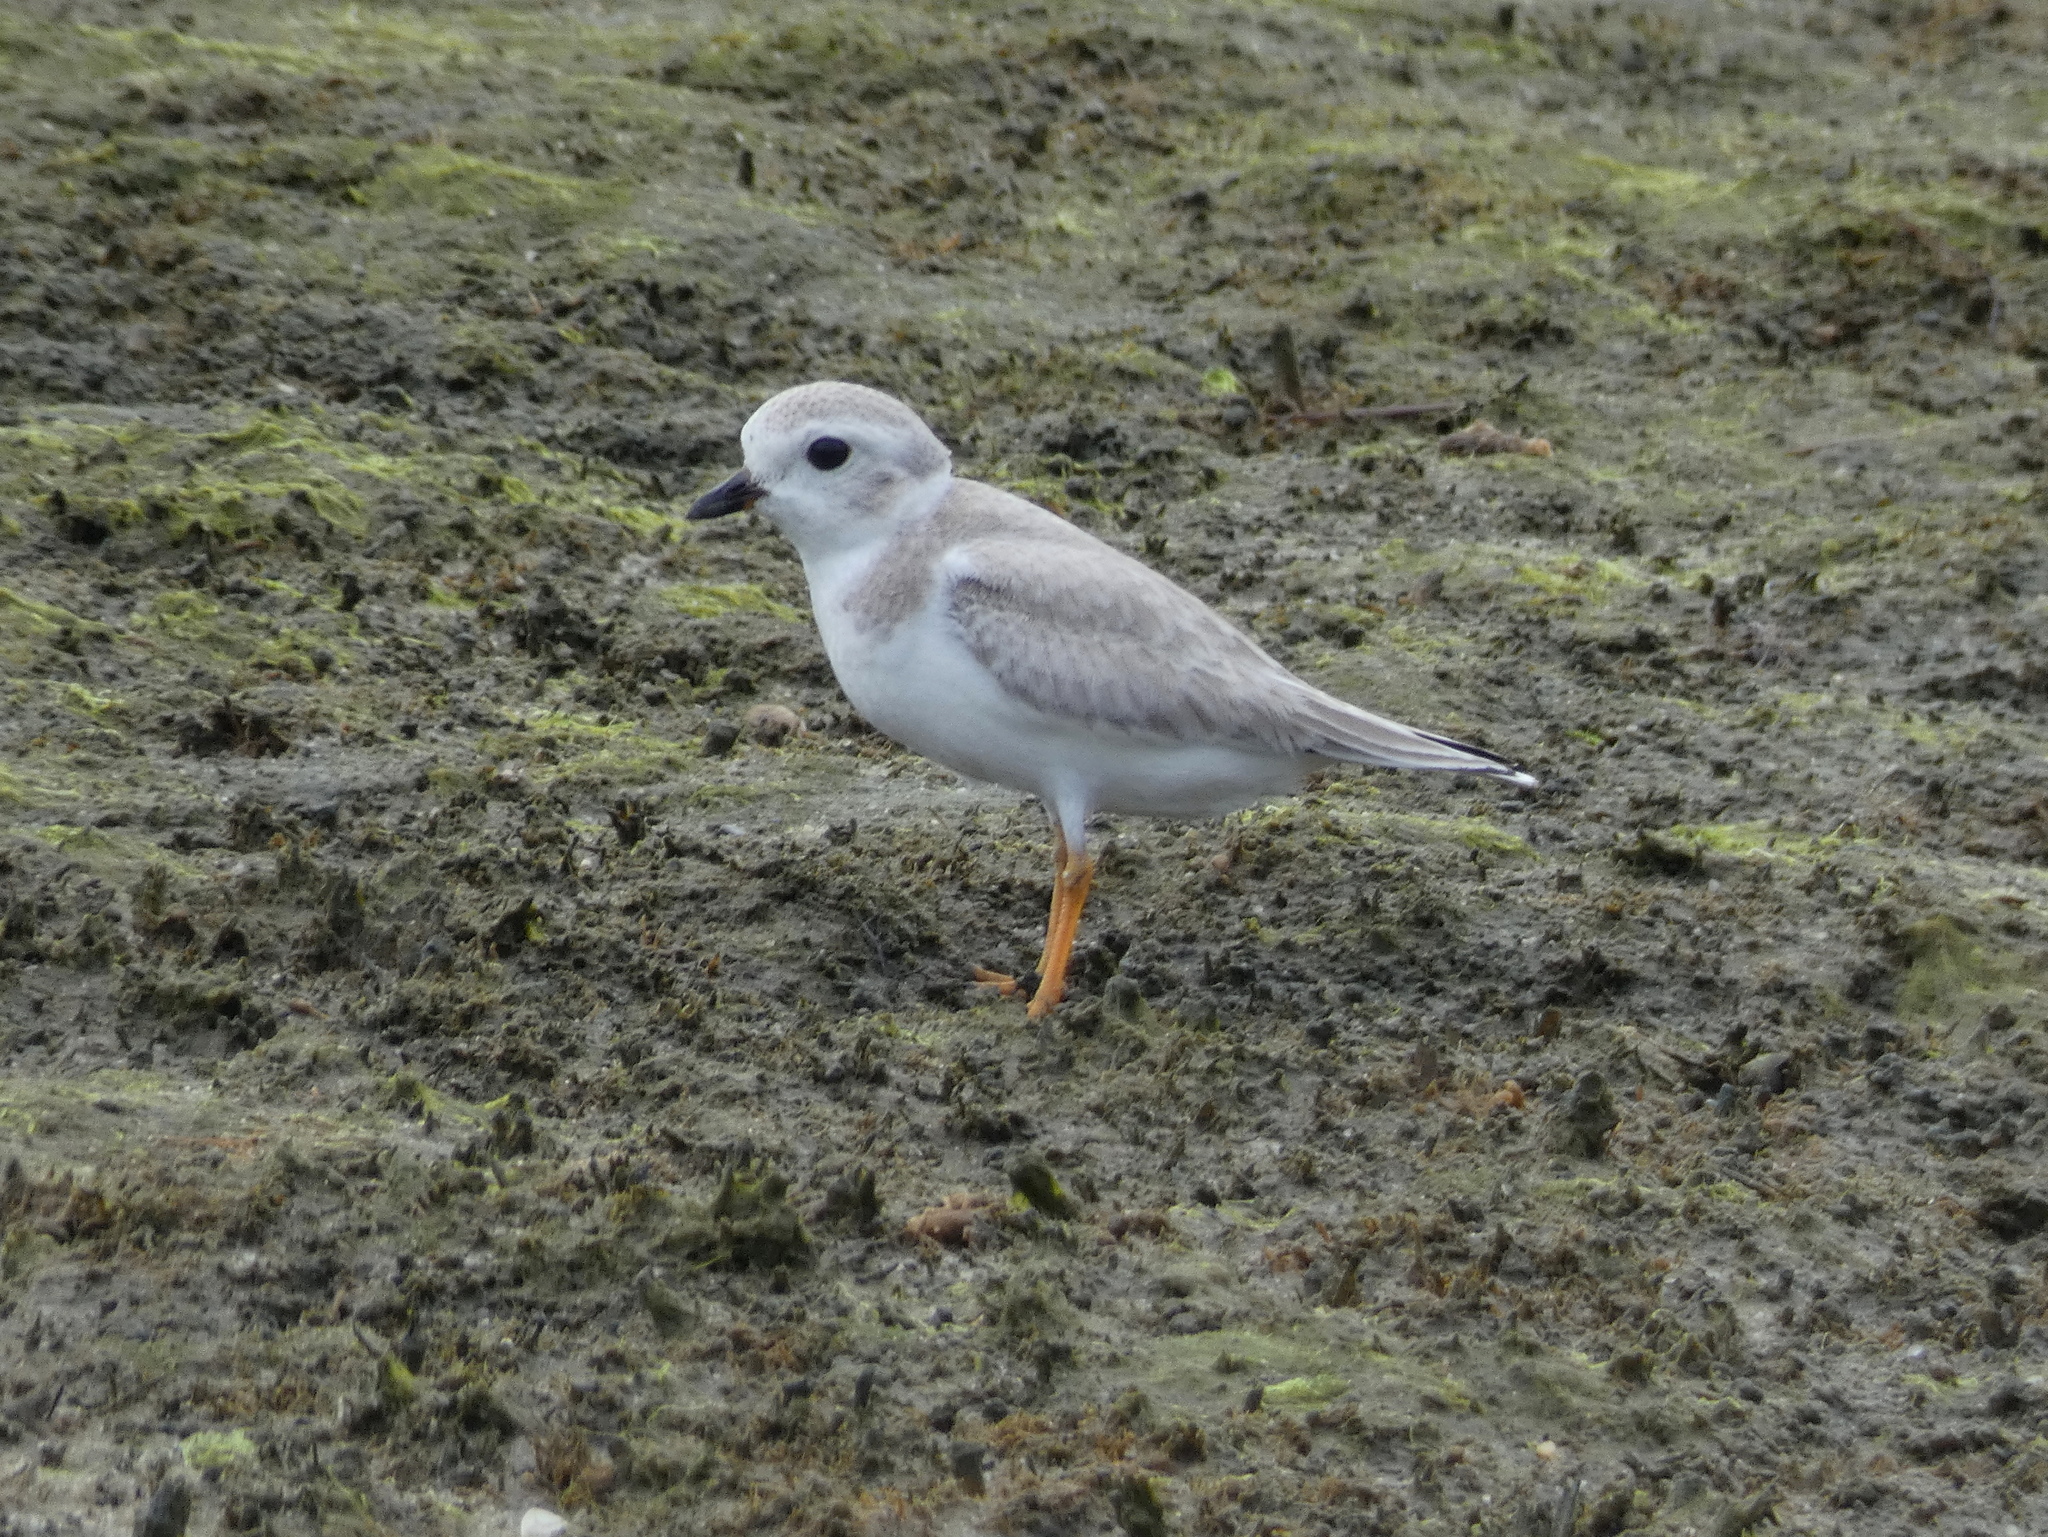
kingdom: Animalia
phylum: Chordata
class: Aves
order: Charadriiformes
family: Charadriidae
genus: Charadrius
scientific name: Charadrius melodus
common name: Piping plover
